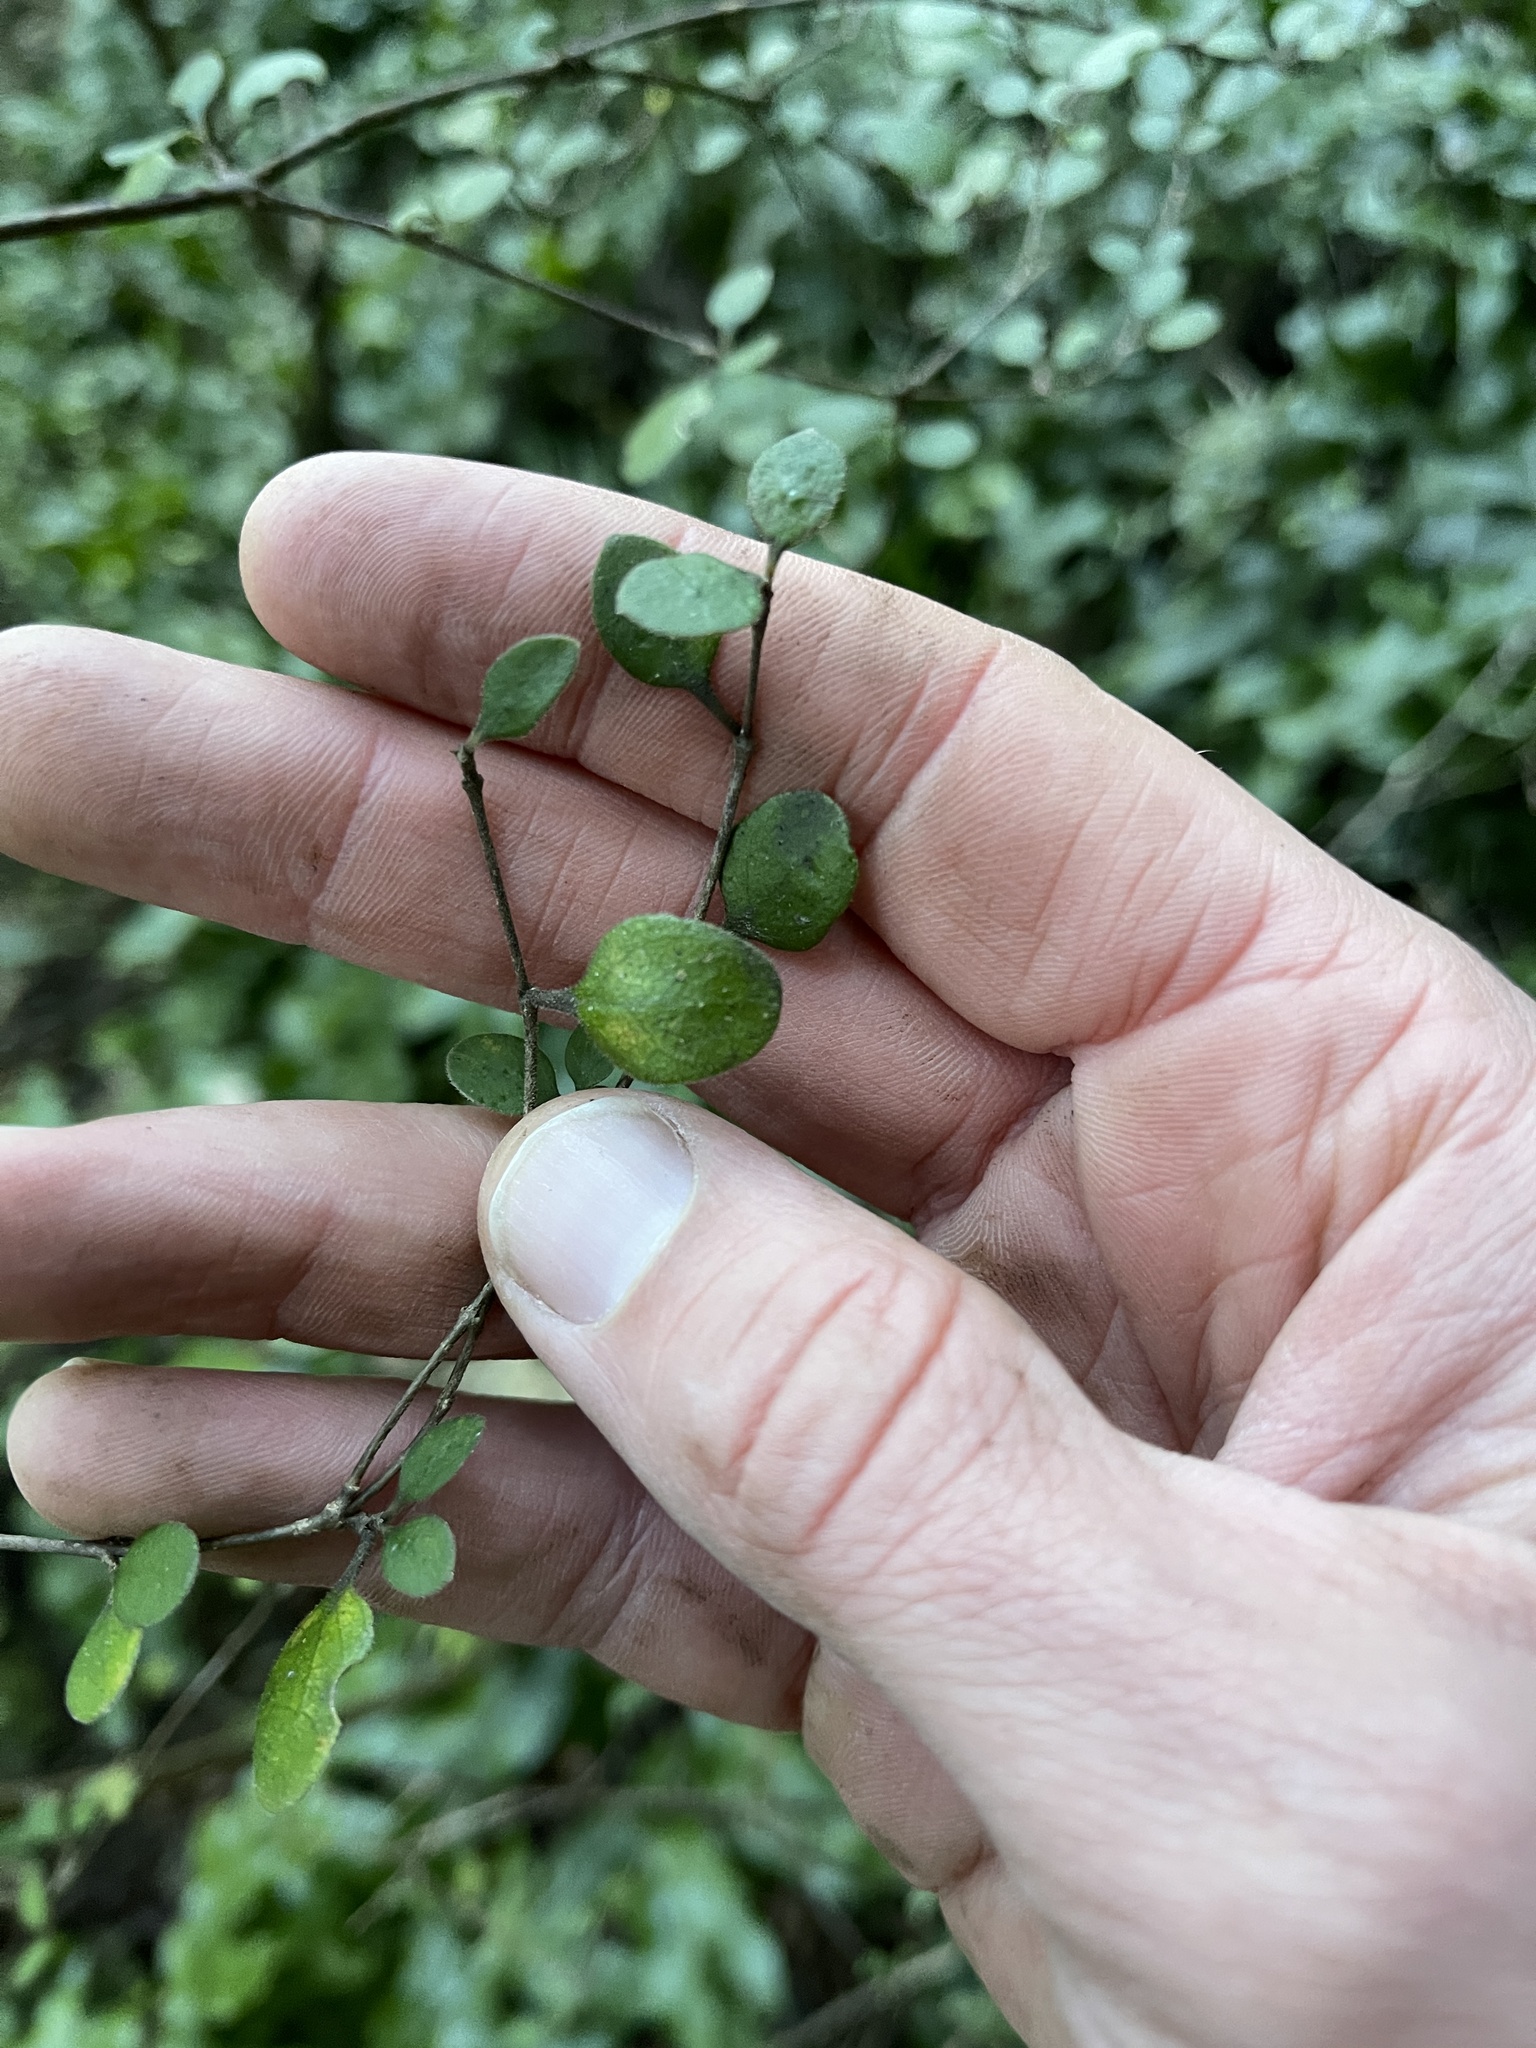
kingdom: Plantae
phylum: Tracheophyta
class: Magnoliopsida
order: Gentianales
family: Rubiaceae
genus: Coprosma
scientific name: Coprosma crassifolia
